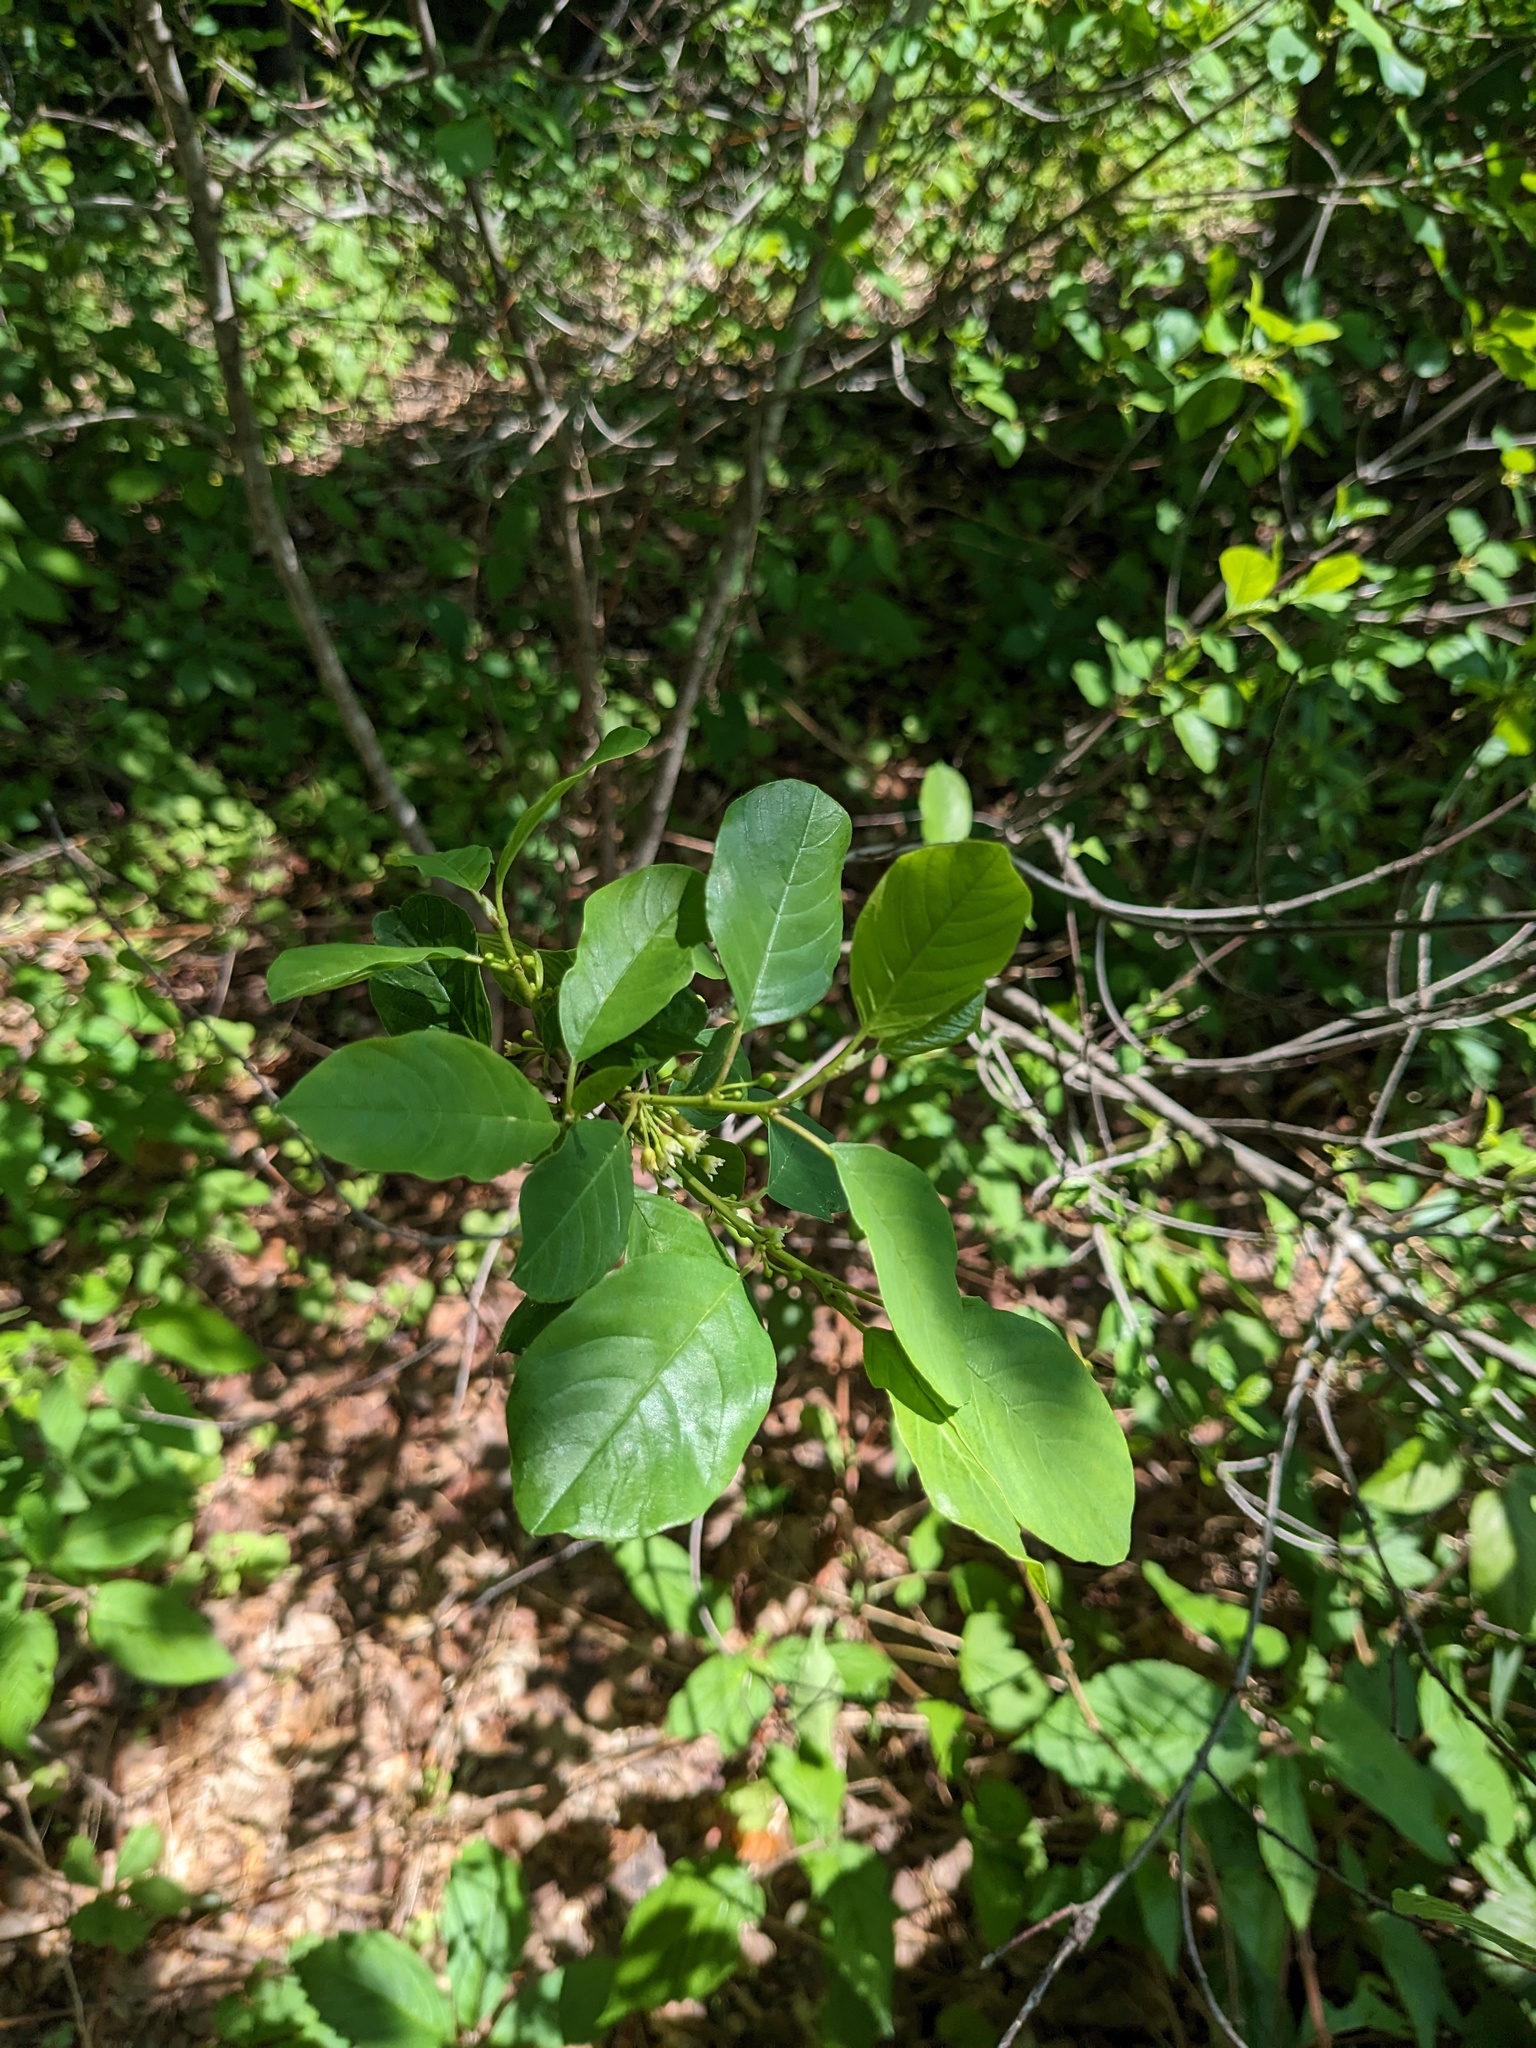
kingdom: Plantae
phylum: Tracheophyta
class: Magnoliopsida
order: Rosales
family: Rhamnaceae
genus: Frangula
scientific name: Frangula alnus
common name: Alder buckthorn
